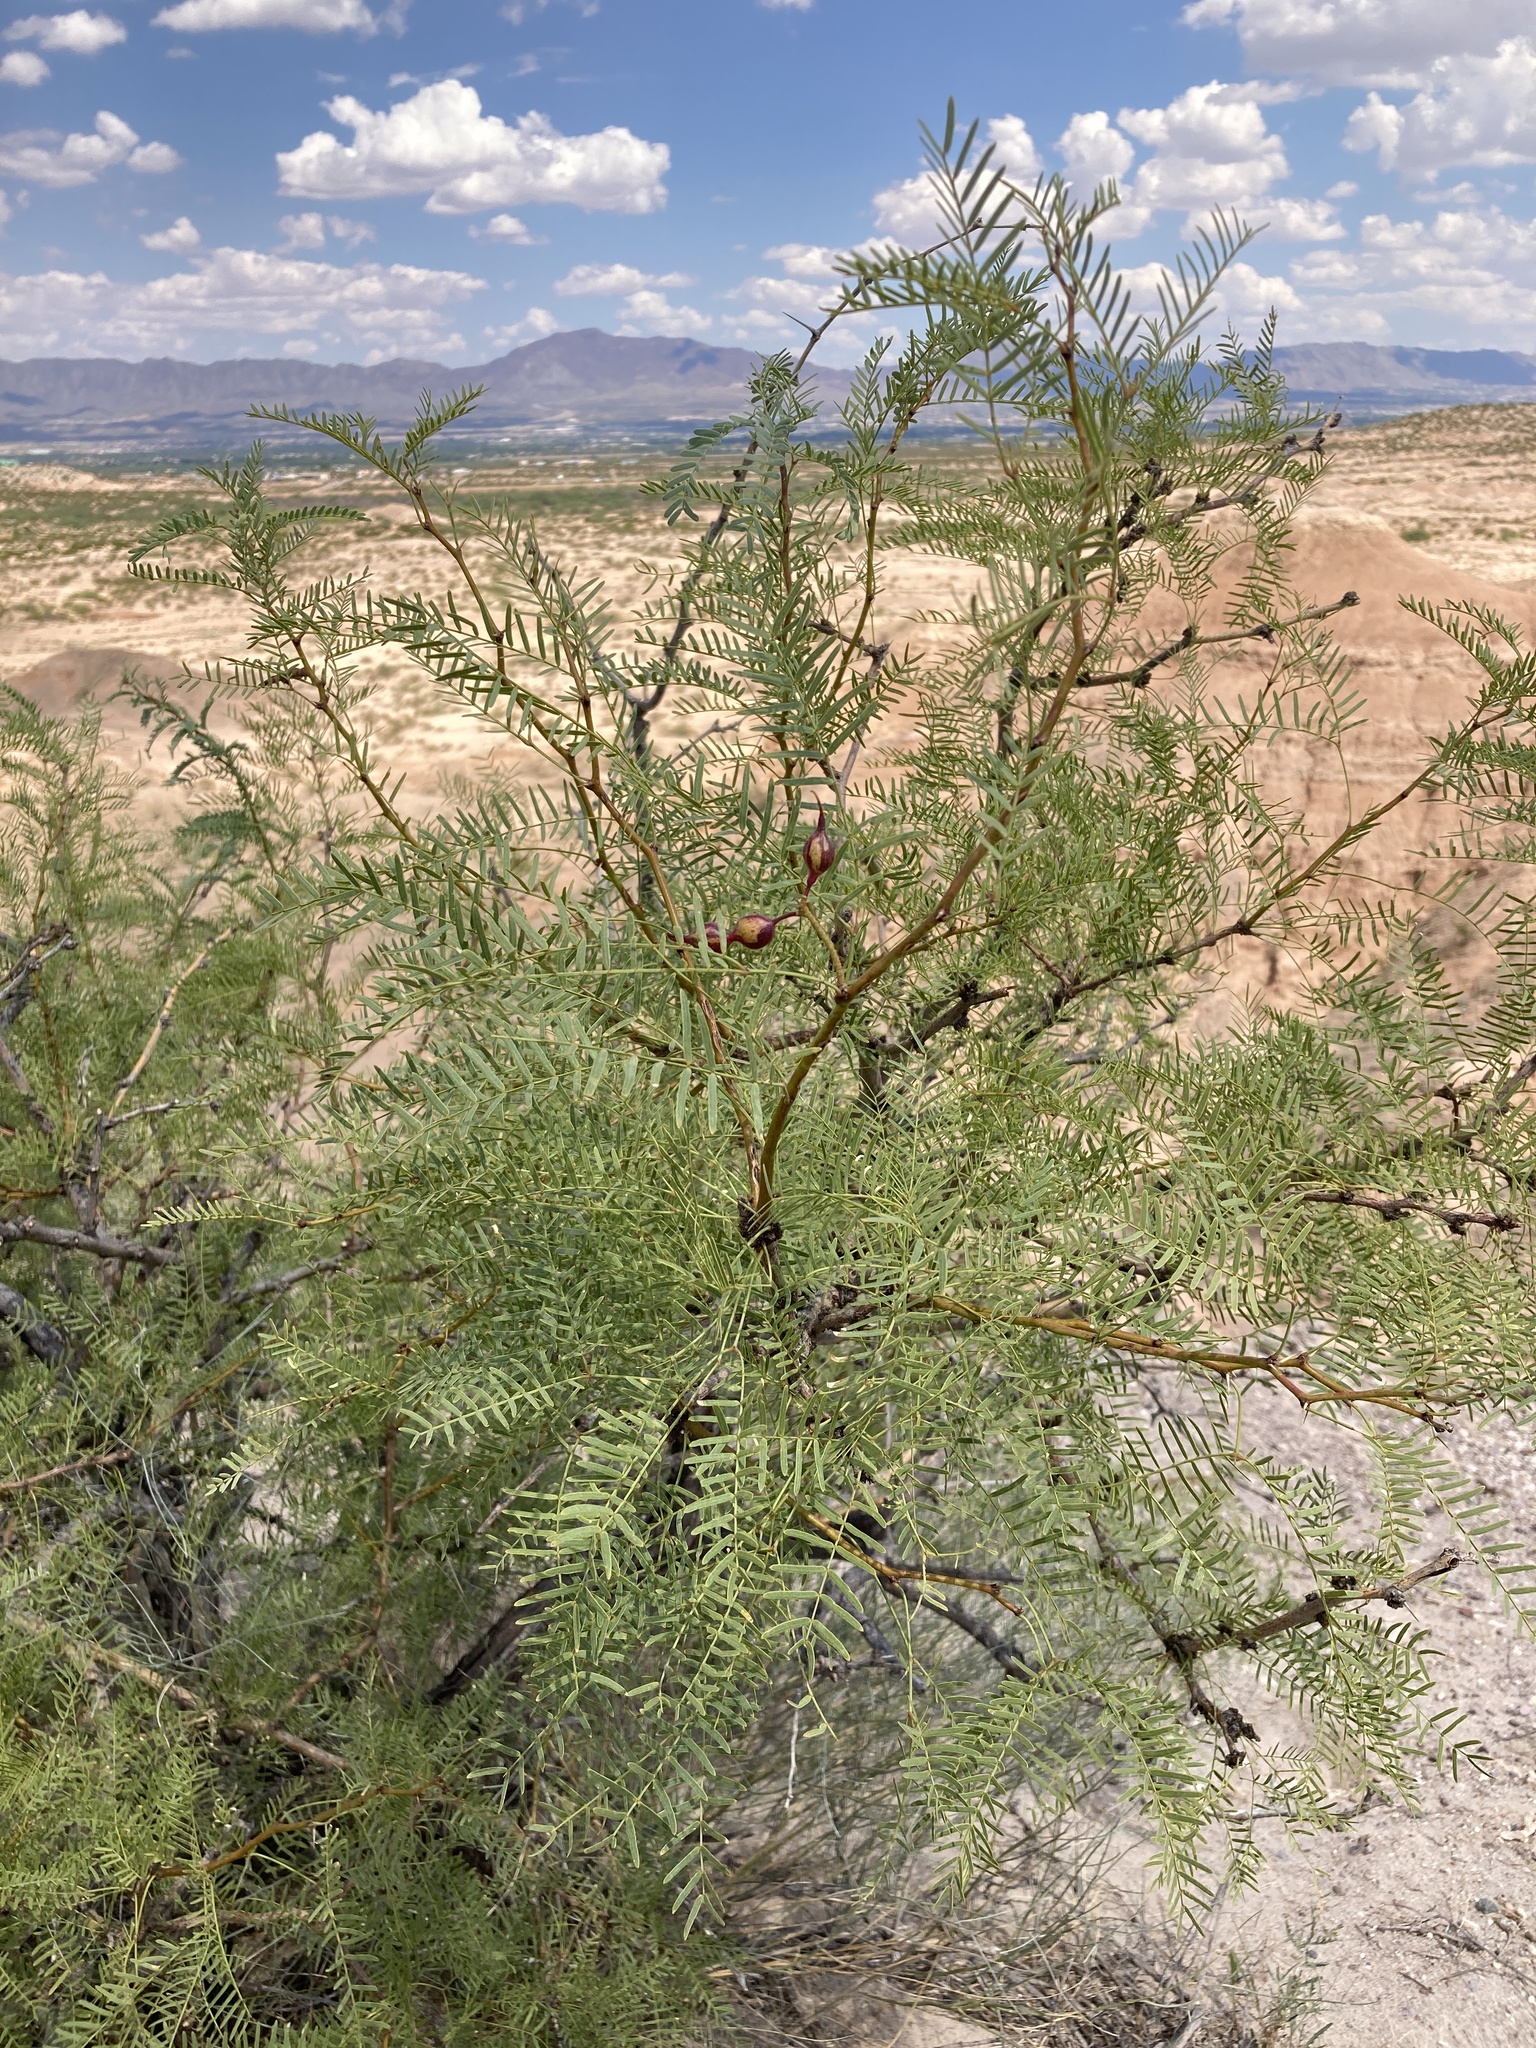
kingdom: Plantae
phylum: Tracheophyta
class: Magnoliopsida
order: Fabales
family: Fabaceae
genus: Prosopis
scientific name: Prosopis glandulosa
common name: Honey mesquite
